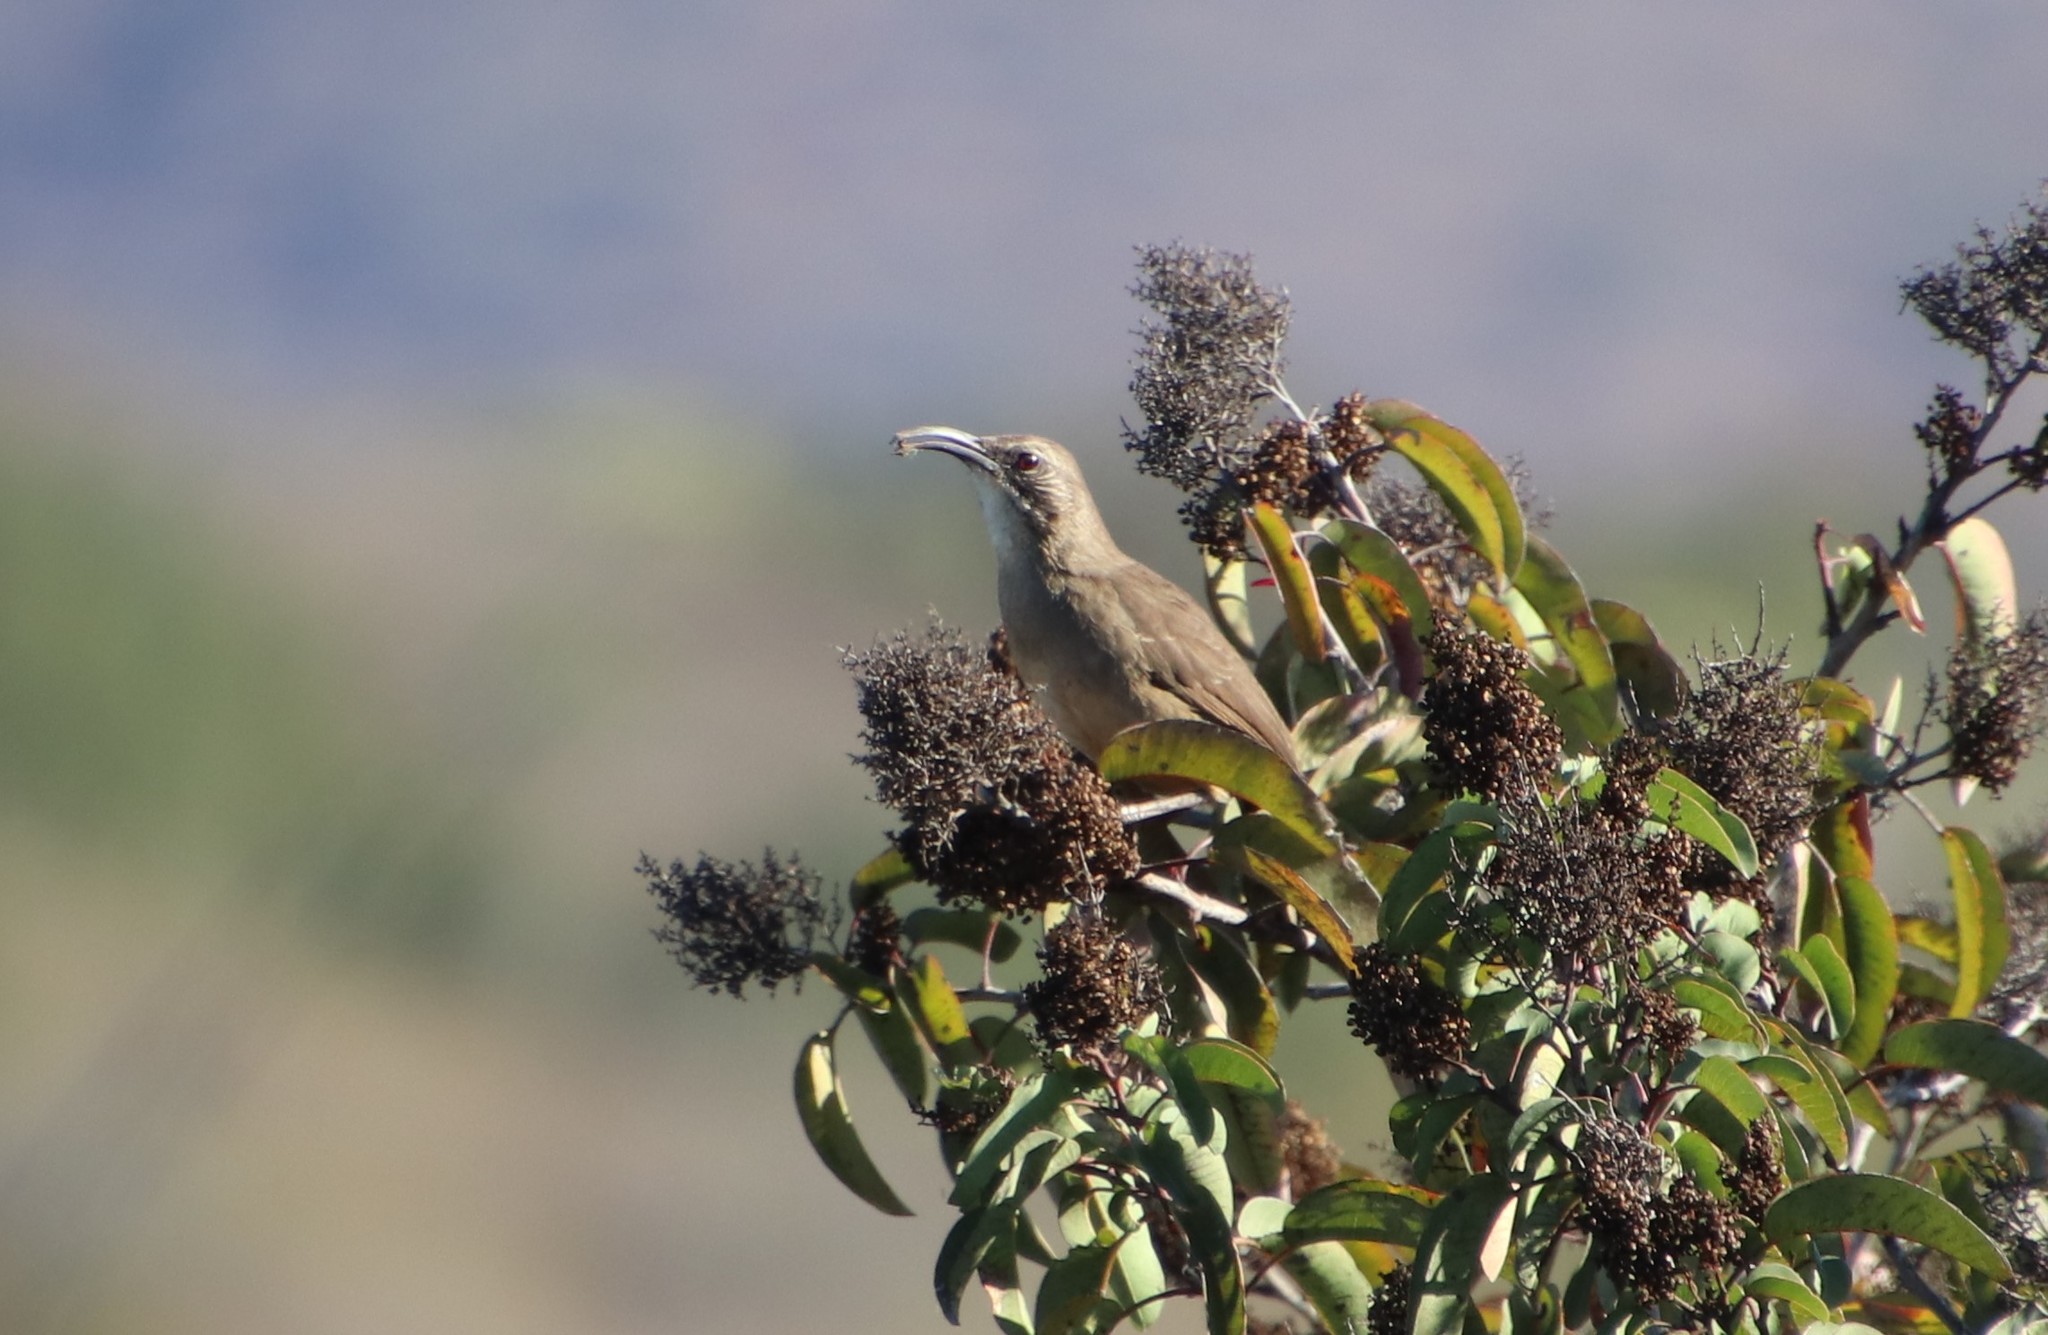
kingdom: Animalia
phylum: Chordata
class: Aves
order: Passeriformes
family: Mimidae
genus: Toxostoma
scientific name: Toxostoma redivivum
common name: California thrasher
